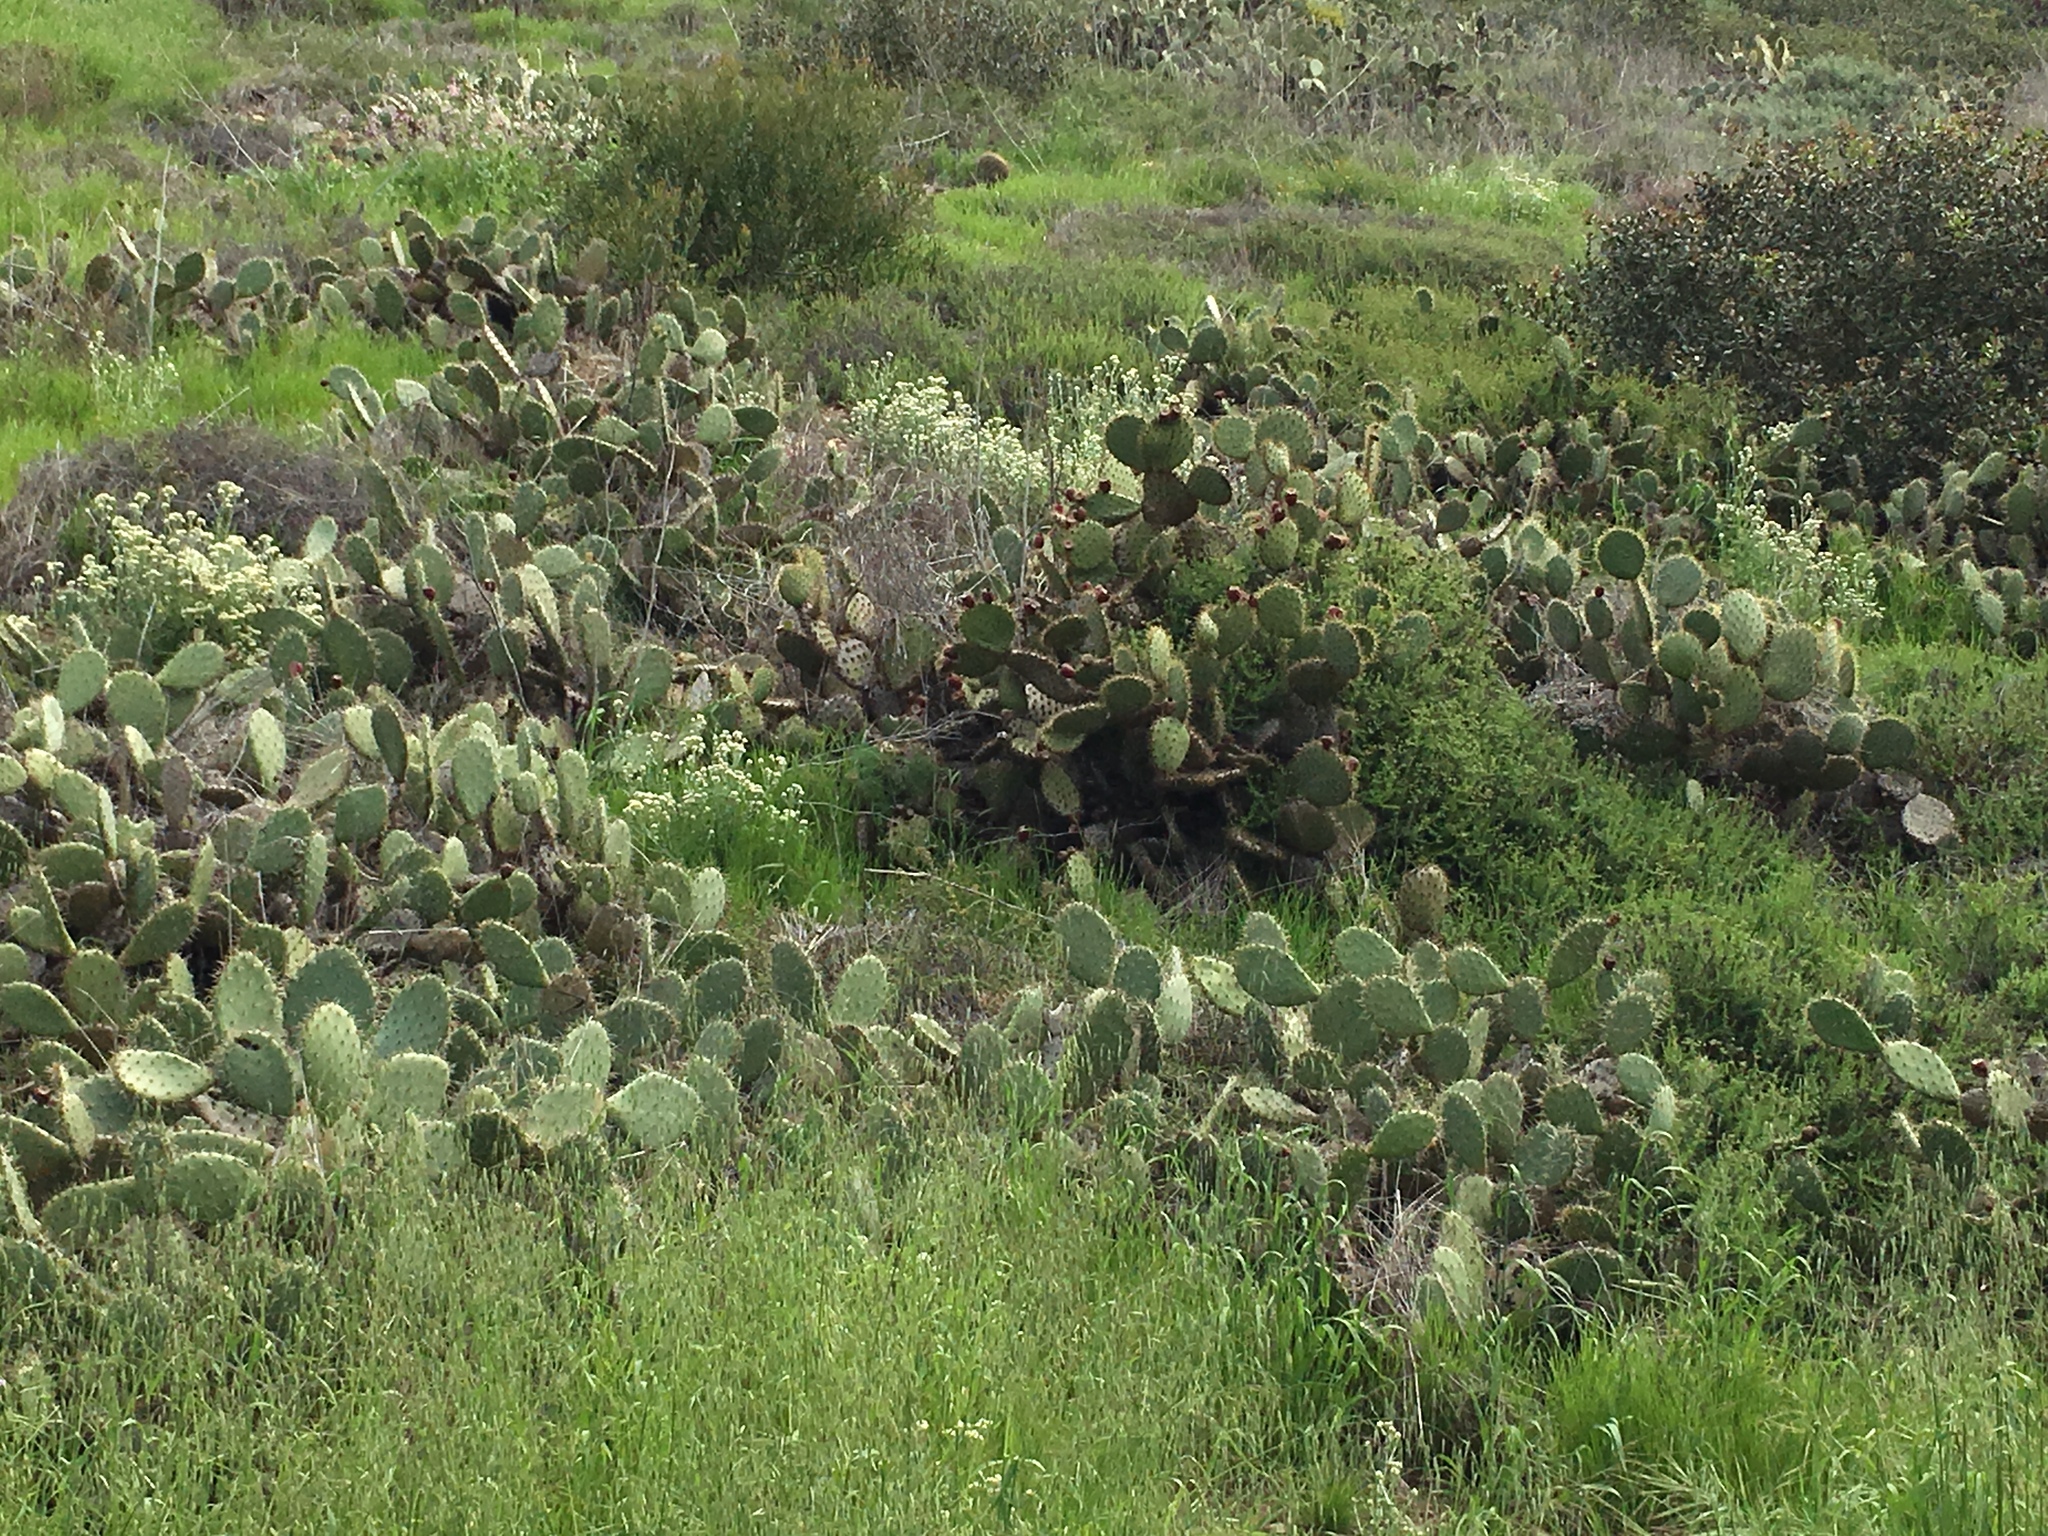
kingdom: Plantae
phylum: Tracheophyta
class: Magnoliopsida
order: Caryophyllales
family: Cactaceae
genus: Opuntia
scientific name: Opuntia littoralis
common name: Coastal prickly-pear
